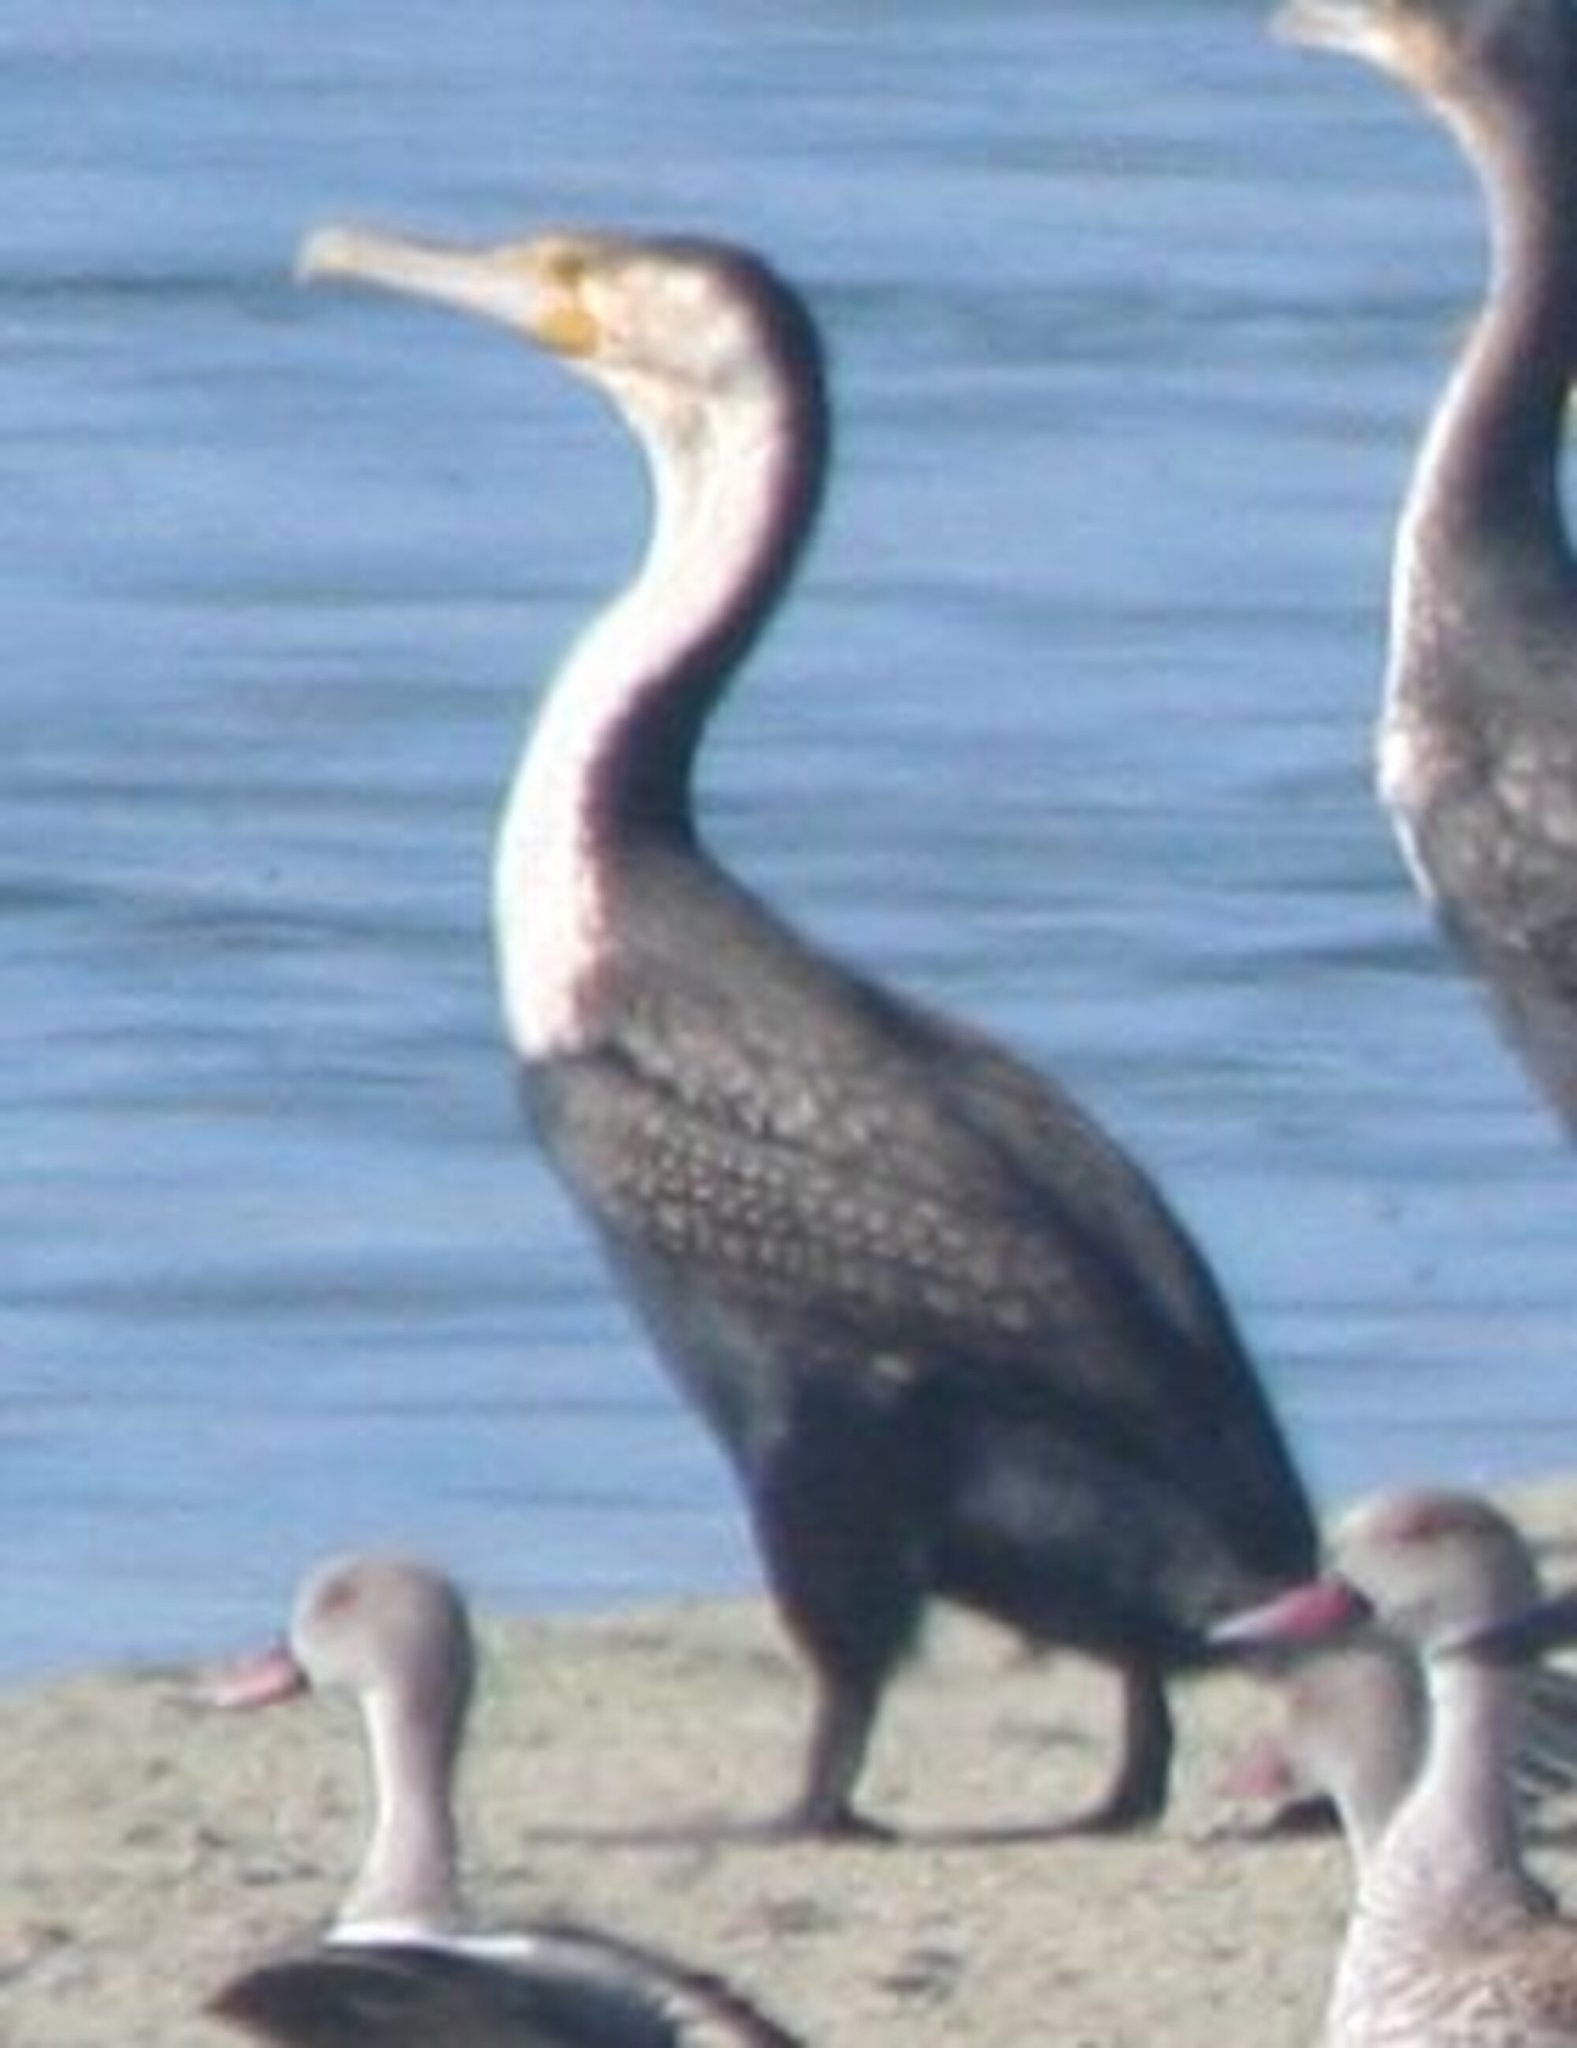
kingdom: Animalia
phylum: Chordata
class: Aves
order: Suliformes
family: Phalacrocoracidae
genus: Phalacrocorax
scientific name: Phalacrocorax carbo
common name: Great cormorant
